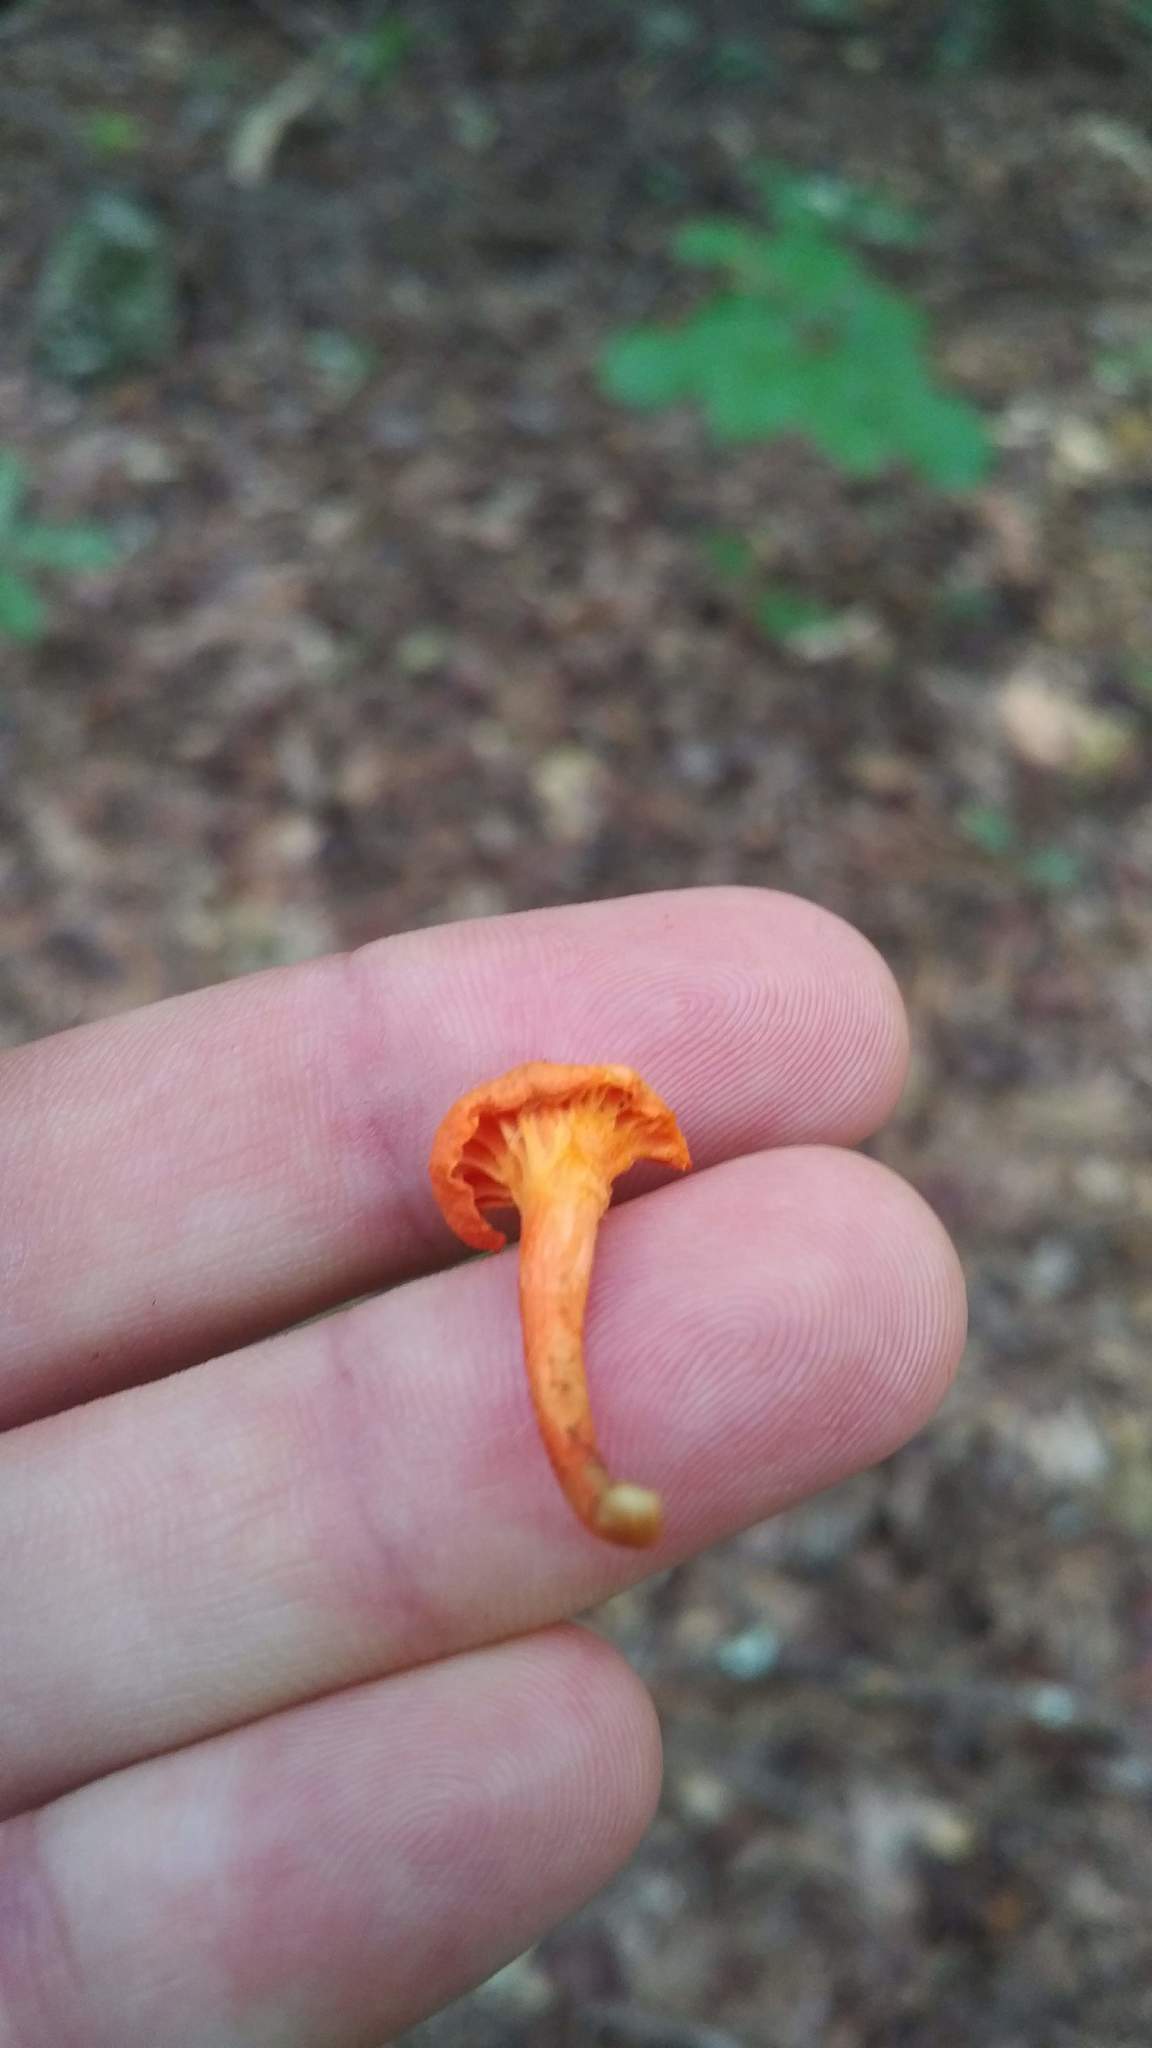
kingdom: Fungi
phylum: Basidiomycota
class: Agaricomycetes
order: Cantharellales
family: Hydnaceae
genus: Cantharellus
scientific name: Cantharellus cinnabarinus
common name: Cinnabar chanterelle
